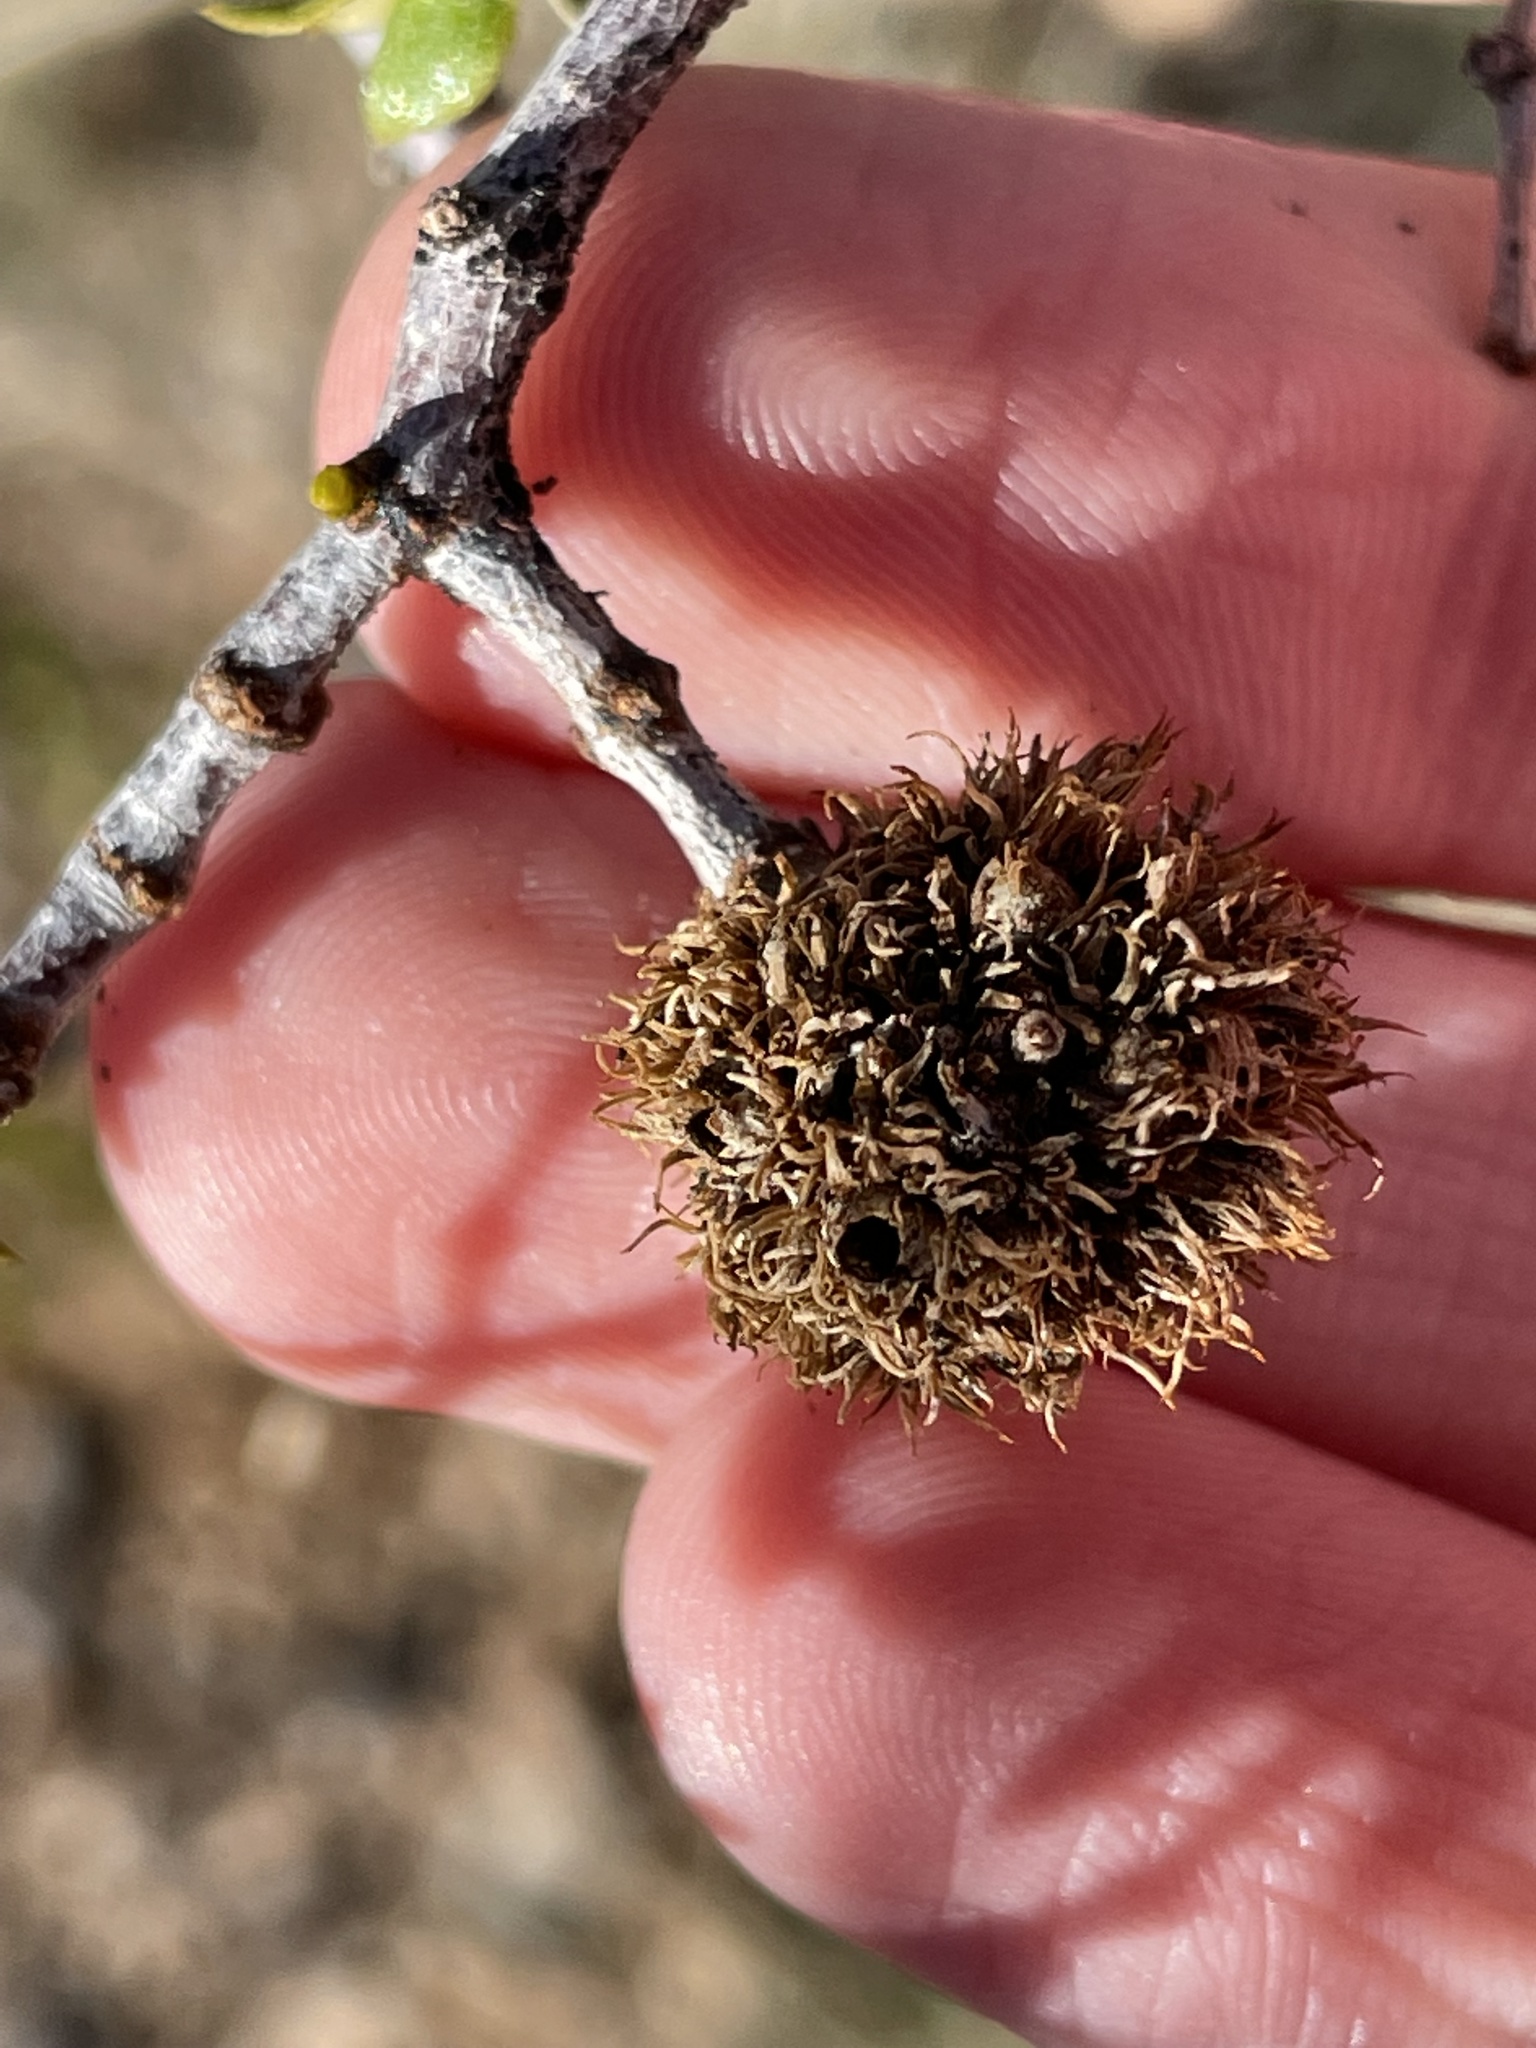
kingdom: Animalia
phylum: Arthropoda
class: Insecta
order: Diptera
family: Cecidomyiidae
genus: Asphondylia
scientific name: Asphondylia auripila
